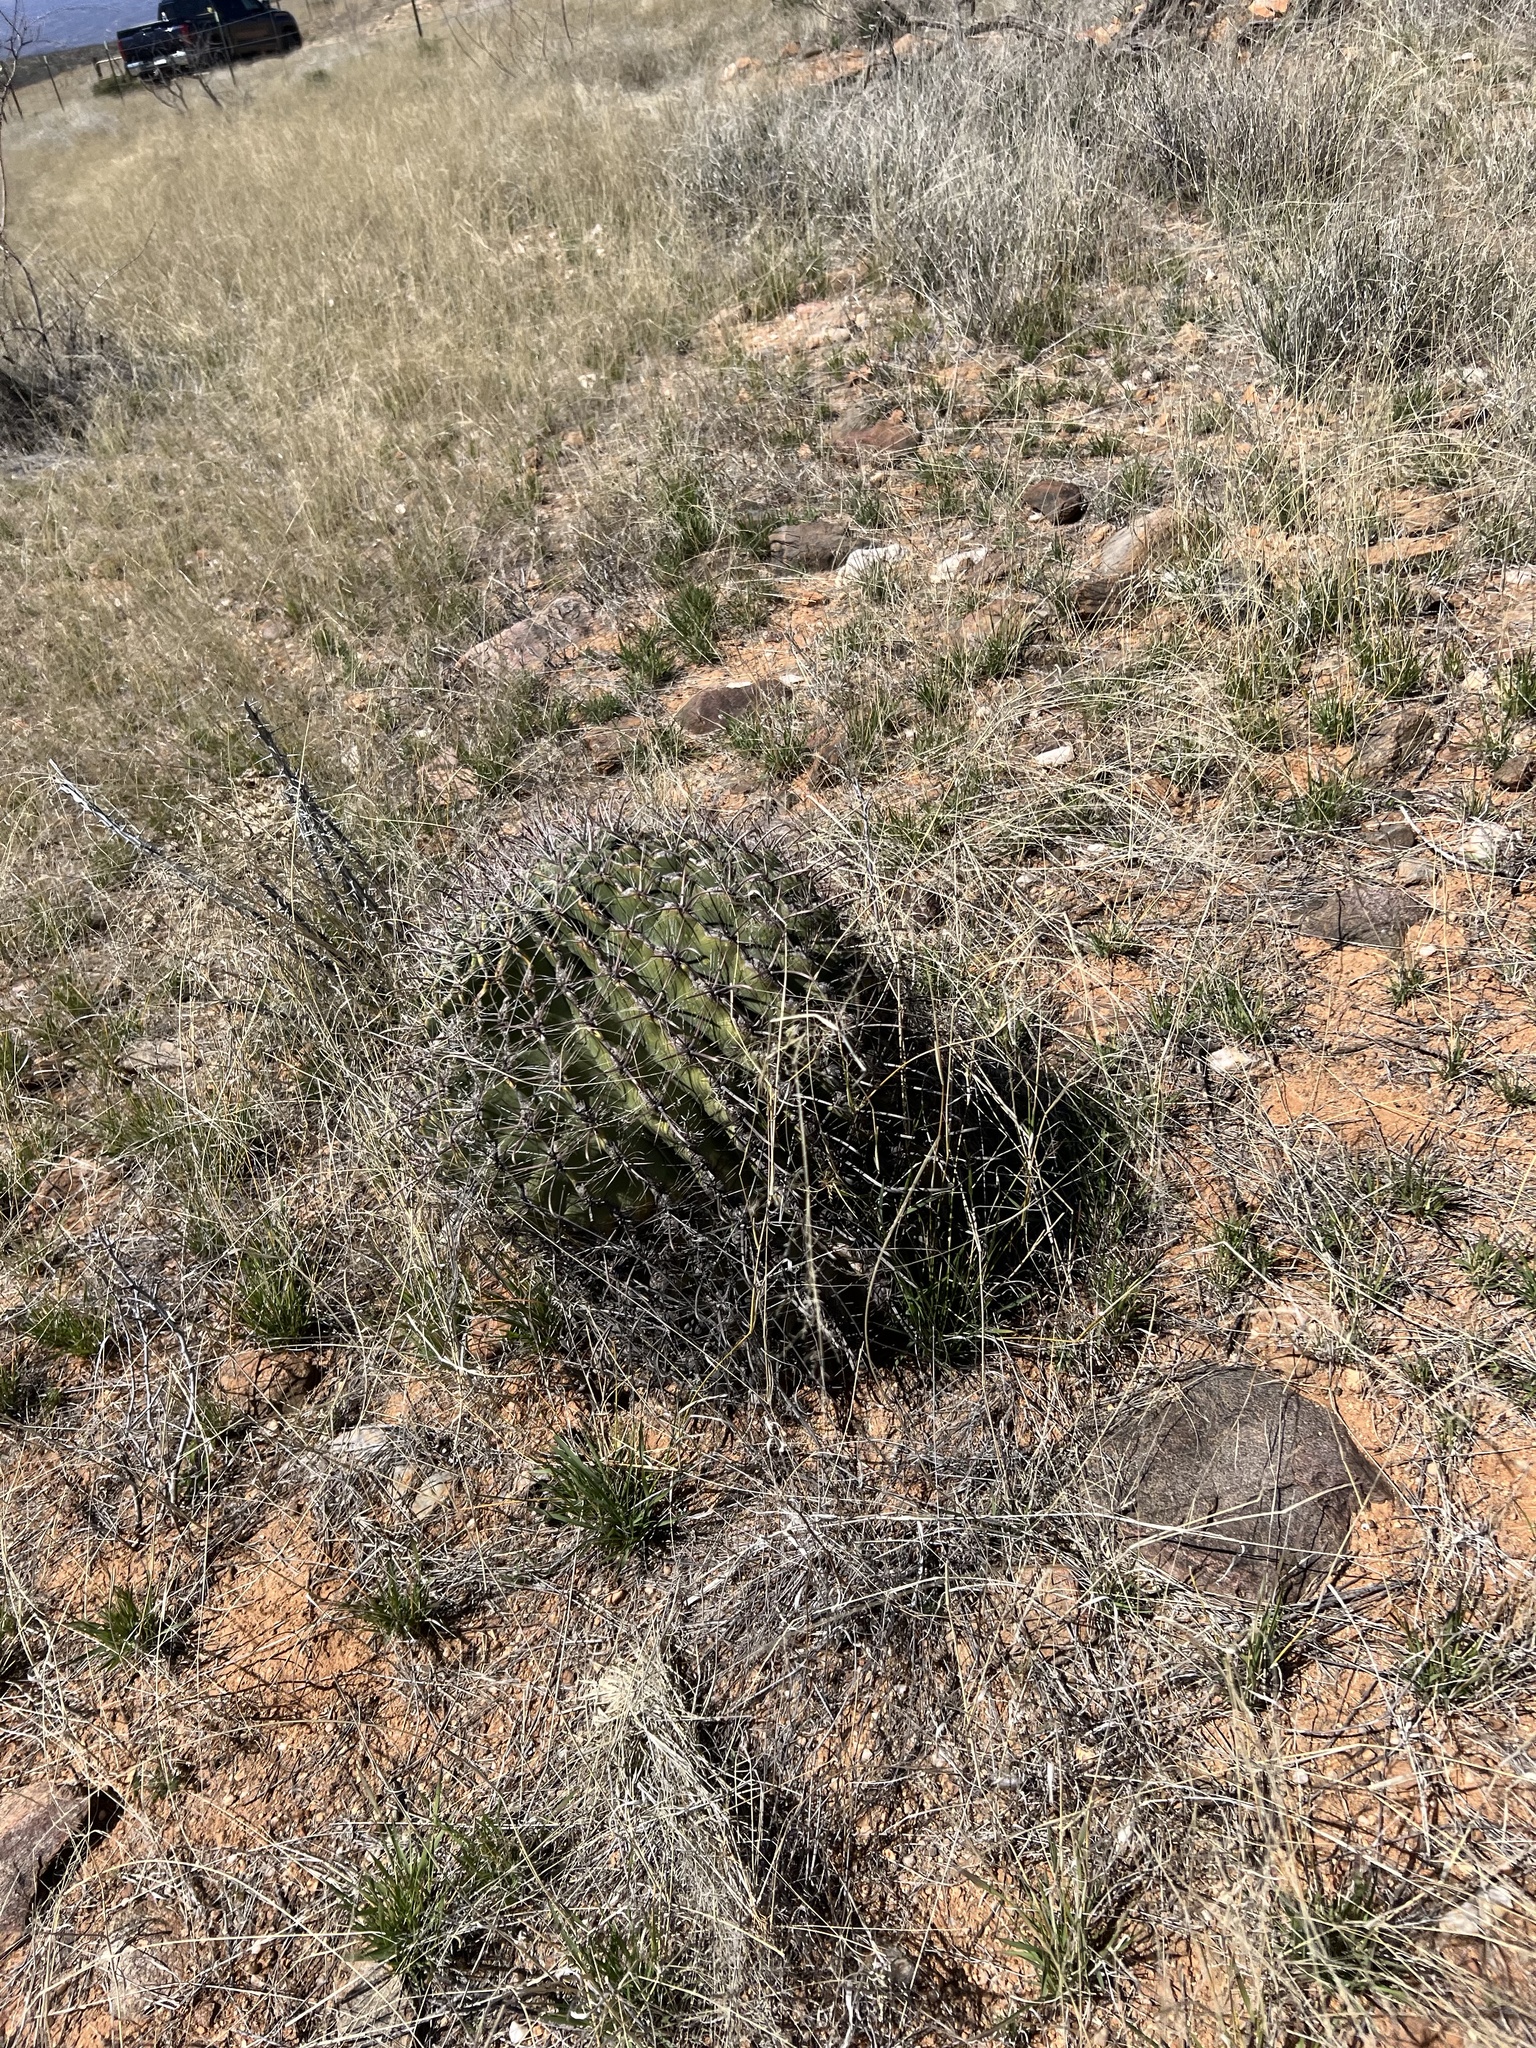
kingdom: Plantae
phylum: Tracheophyta
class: Magnoliopsida
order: Caryophyllales
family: Cactaceae
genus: Ferocactus
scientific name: Ferocactus wislizeni
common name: Candy barrel cactus
